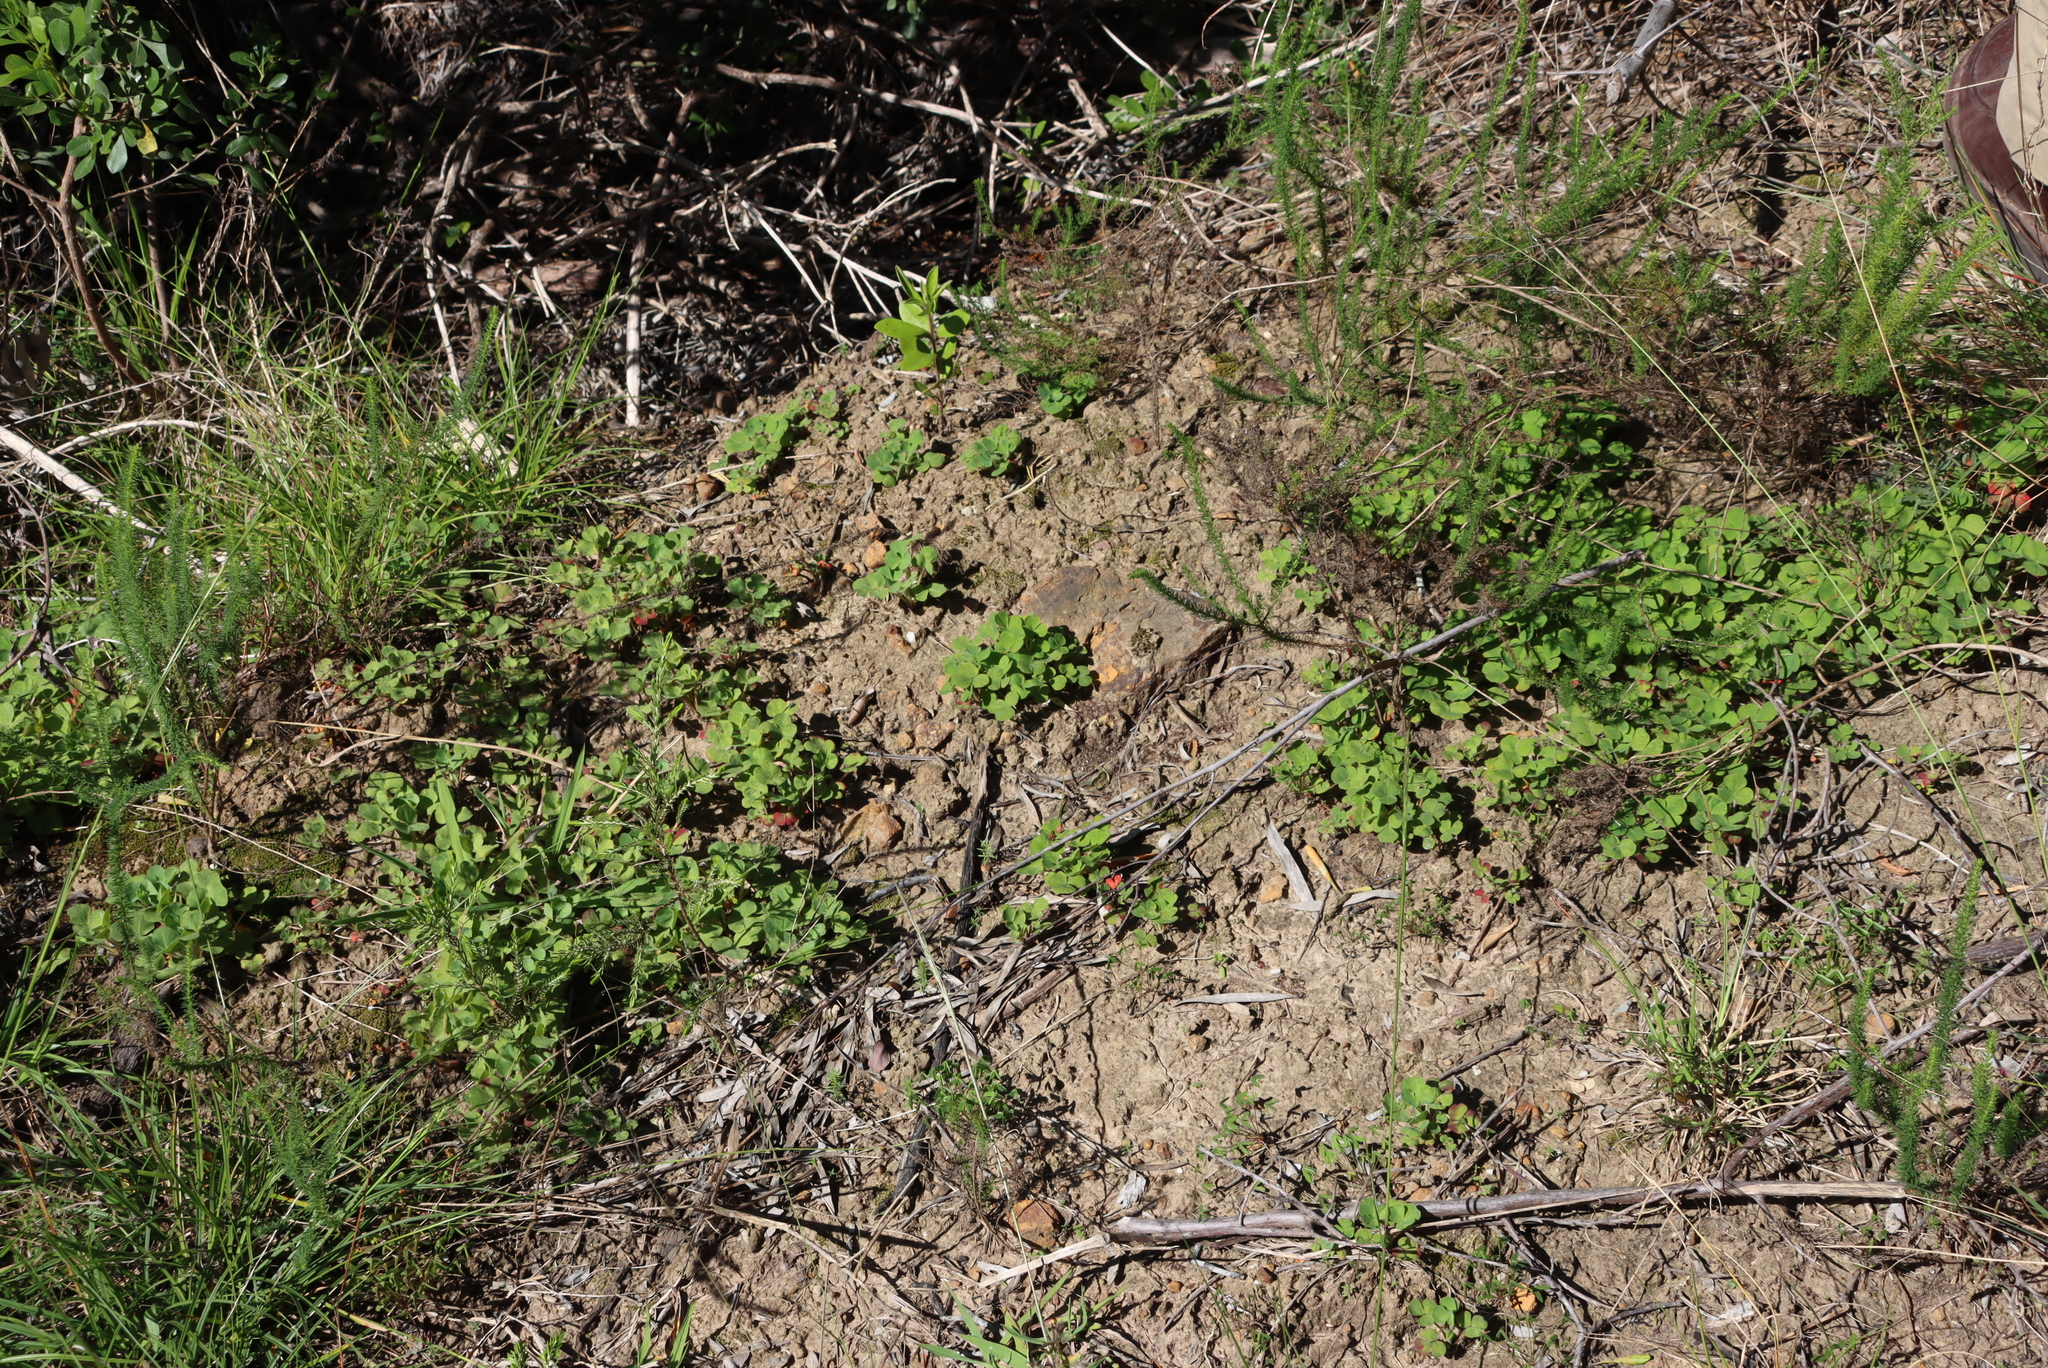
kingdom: Plantae
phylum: Tracheophyta
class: Magnoliopsida
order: Oxalidales
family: Oxalidaceae
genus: Oxalis
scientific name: Oxalis imbricata
